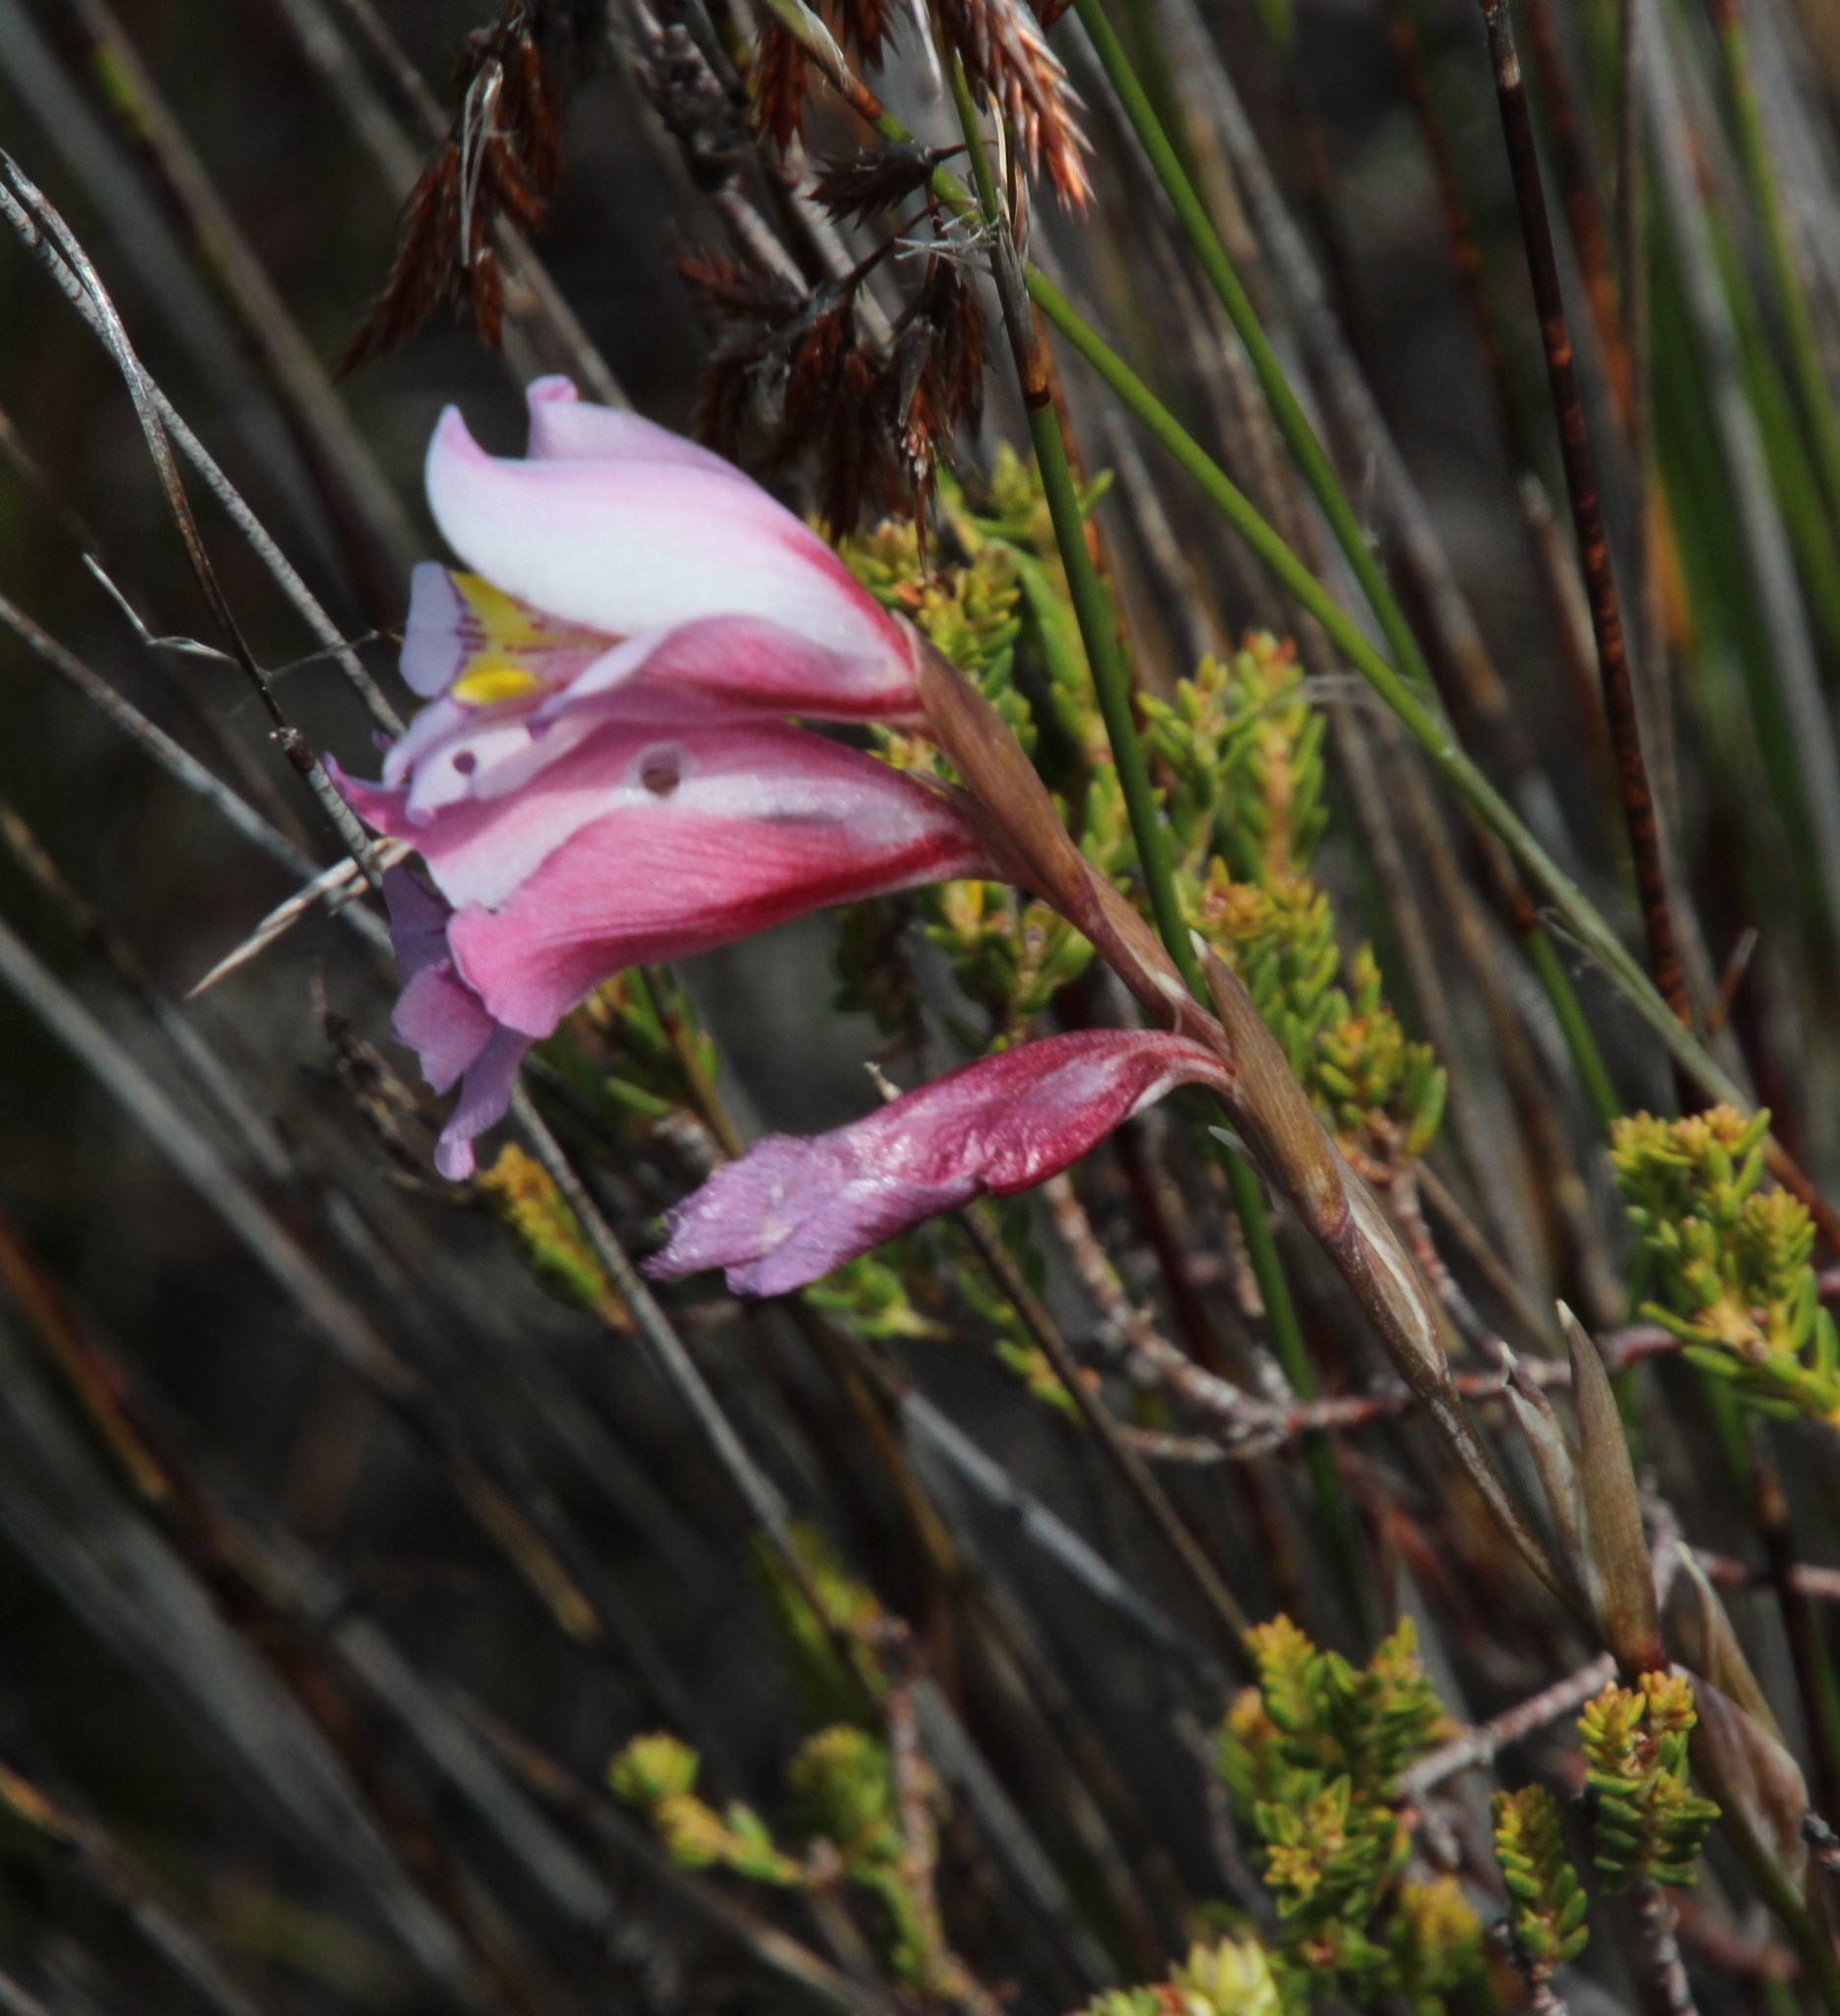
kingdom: Plantae
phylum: Tracheophyta
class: Liliopsida
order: Asparagales
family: Iridaceae
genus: Gladiolus
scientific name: Gladiolus brevifolius
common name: March pypie
